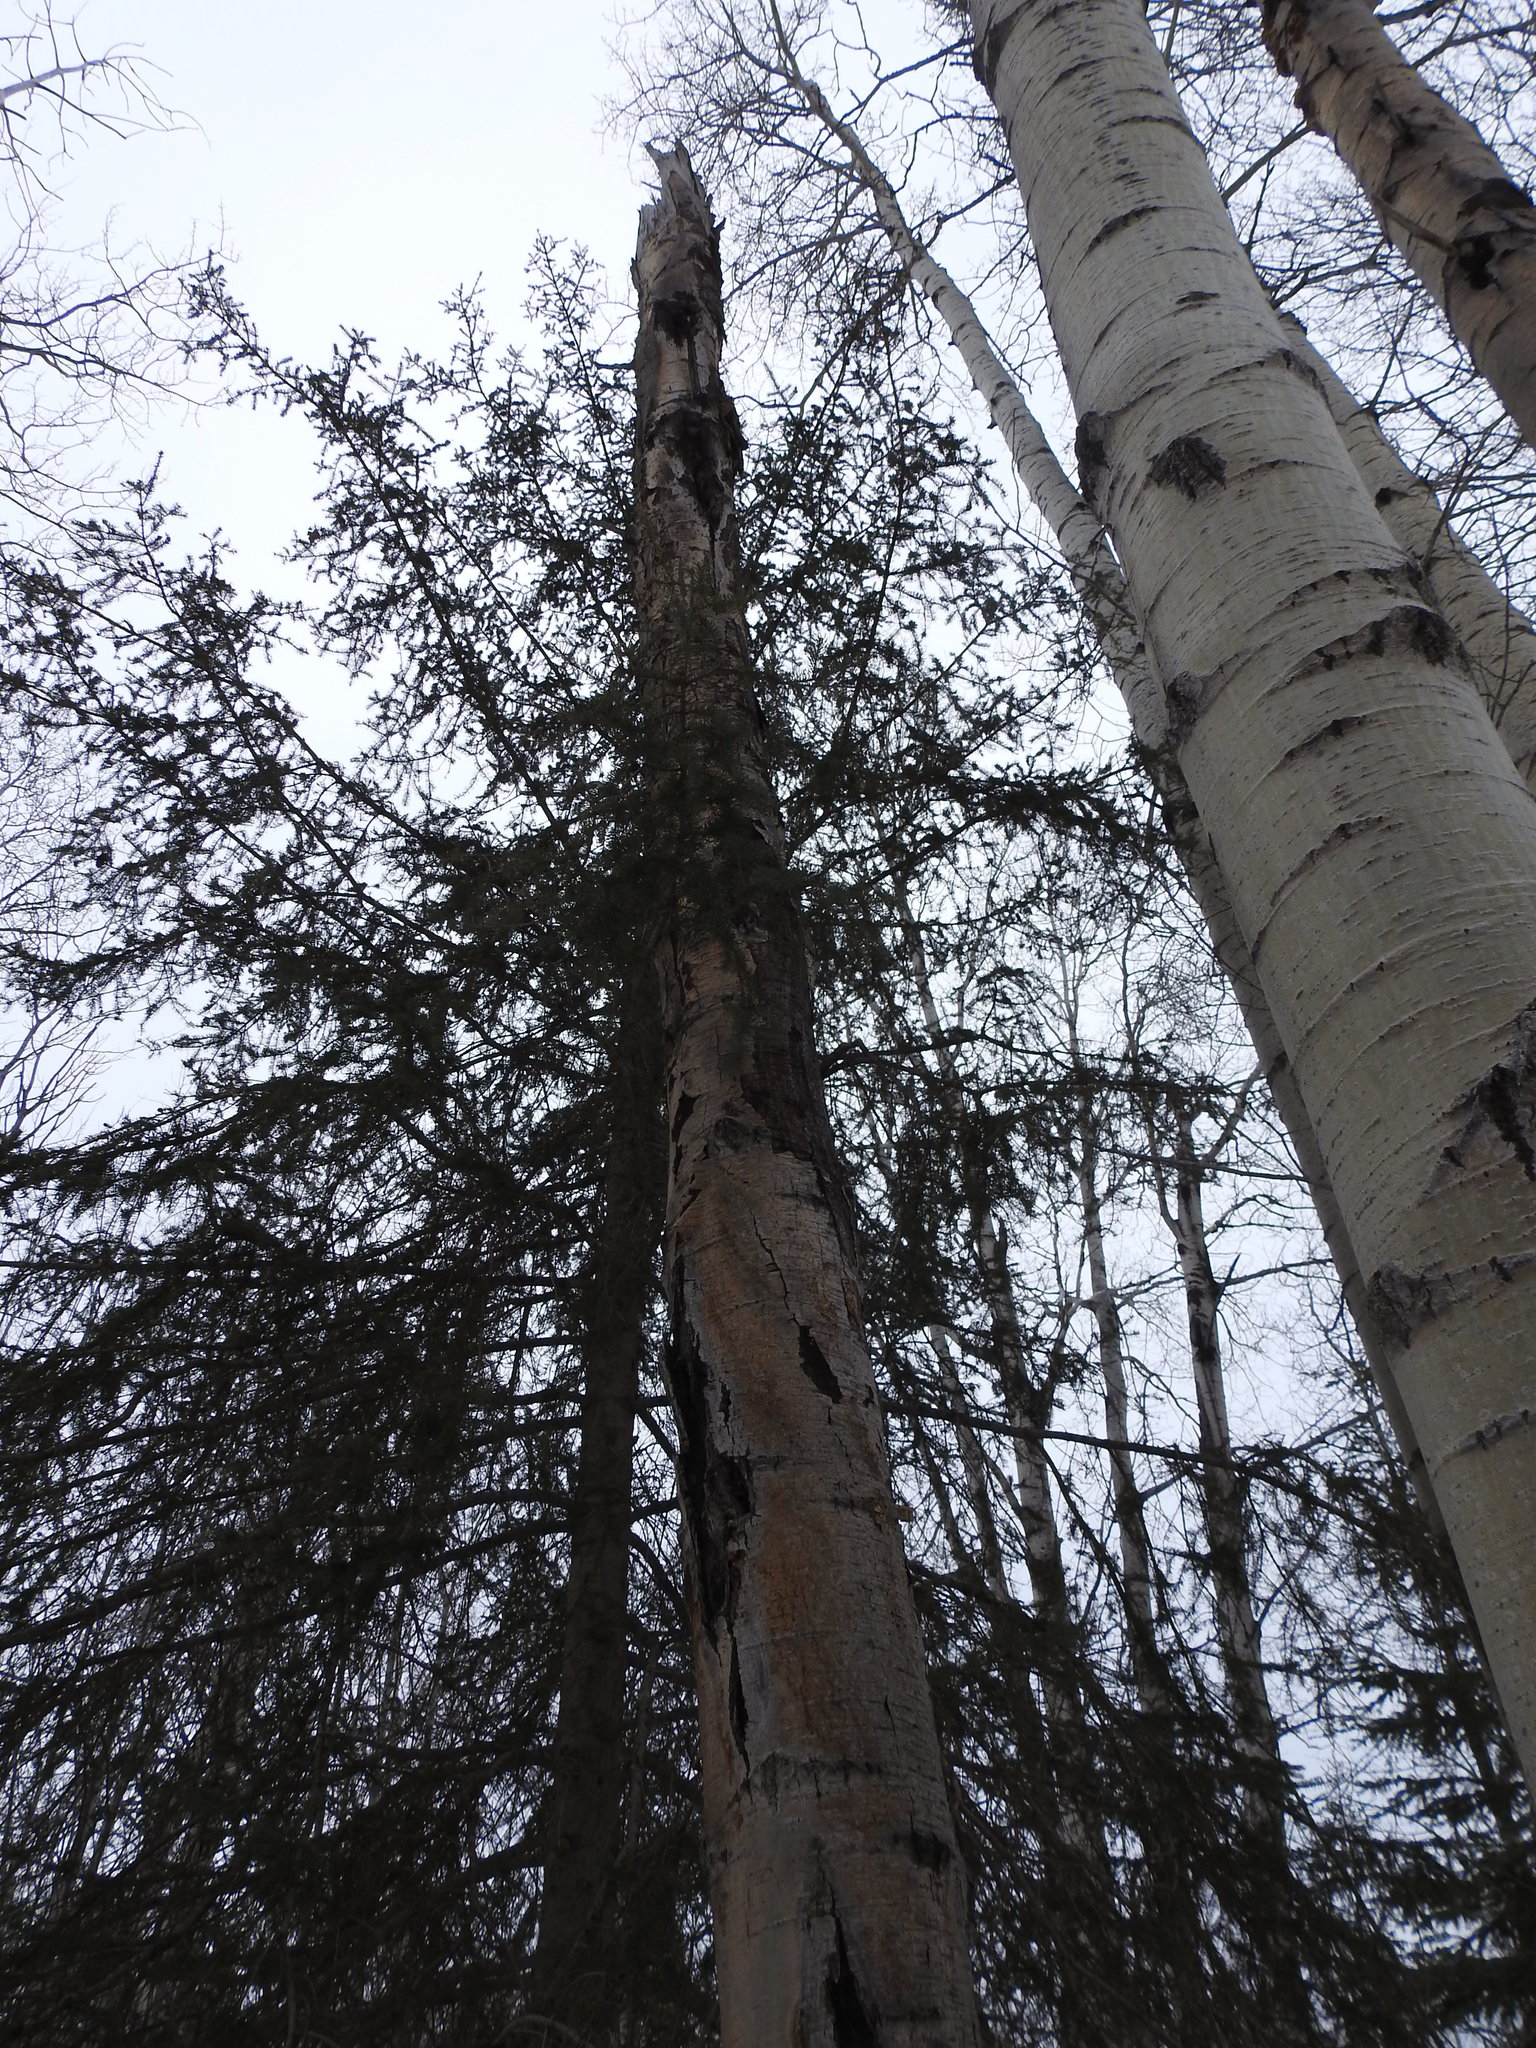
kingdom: Plantae
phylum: Tracheophyta
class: Magnoliopsida
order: Malpighiales
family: Salicaceae
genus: Populus
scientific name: Populus tremuloides
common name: Quaking aspen
